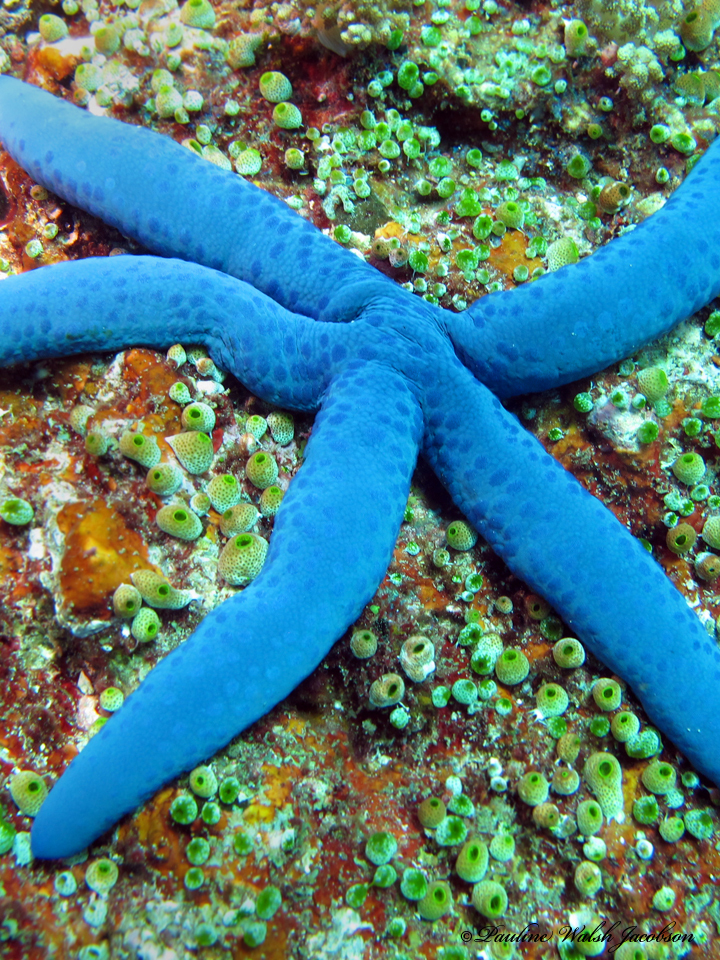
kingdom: Animalia
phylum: Echinodermata
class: Asteroidea
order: Valvatida
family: Ophidiasteridae
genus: Linckia
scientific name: Linckia laevigata
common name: Azure sea star
